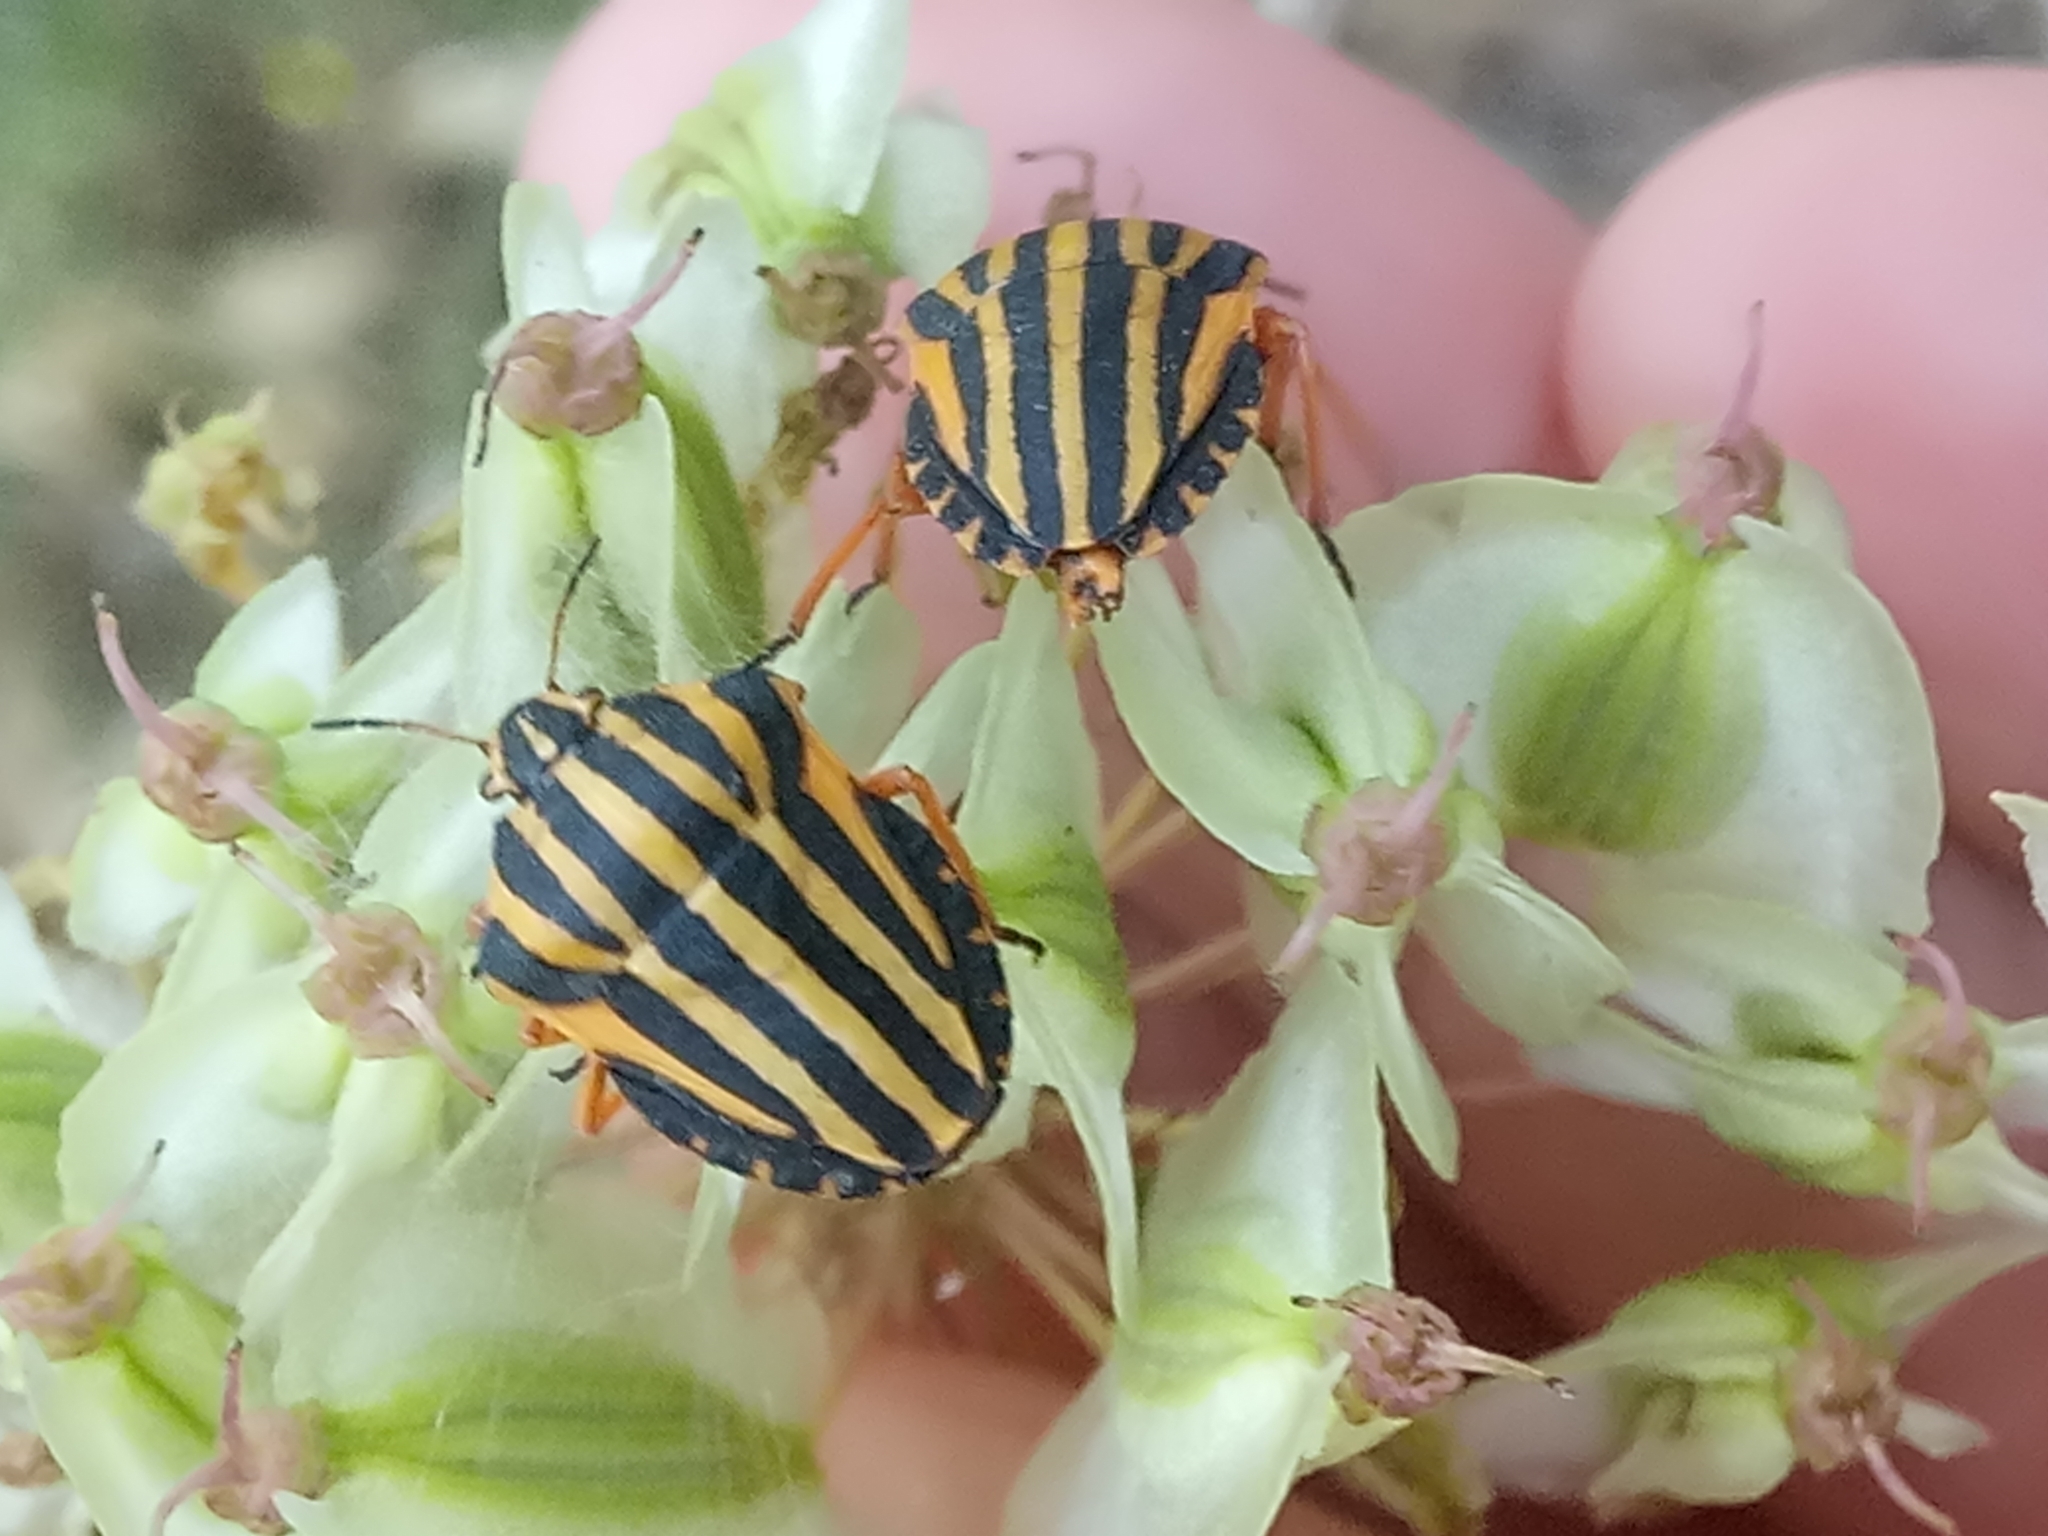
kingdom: Animalia
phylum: Arthropoda
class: Insecta
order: Hemiptera
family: Pentatomidae
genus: Graphosoma
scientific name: Graphosoma lineatum
